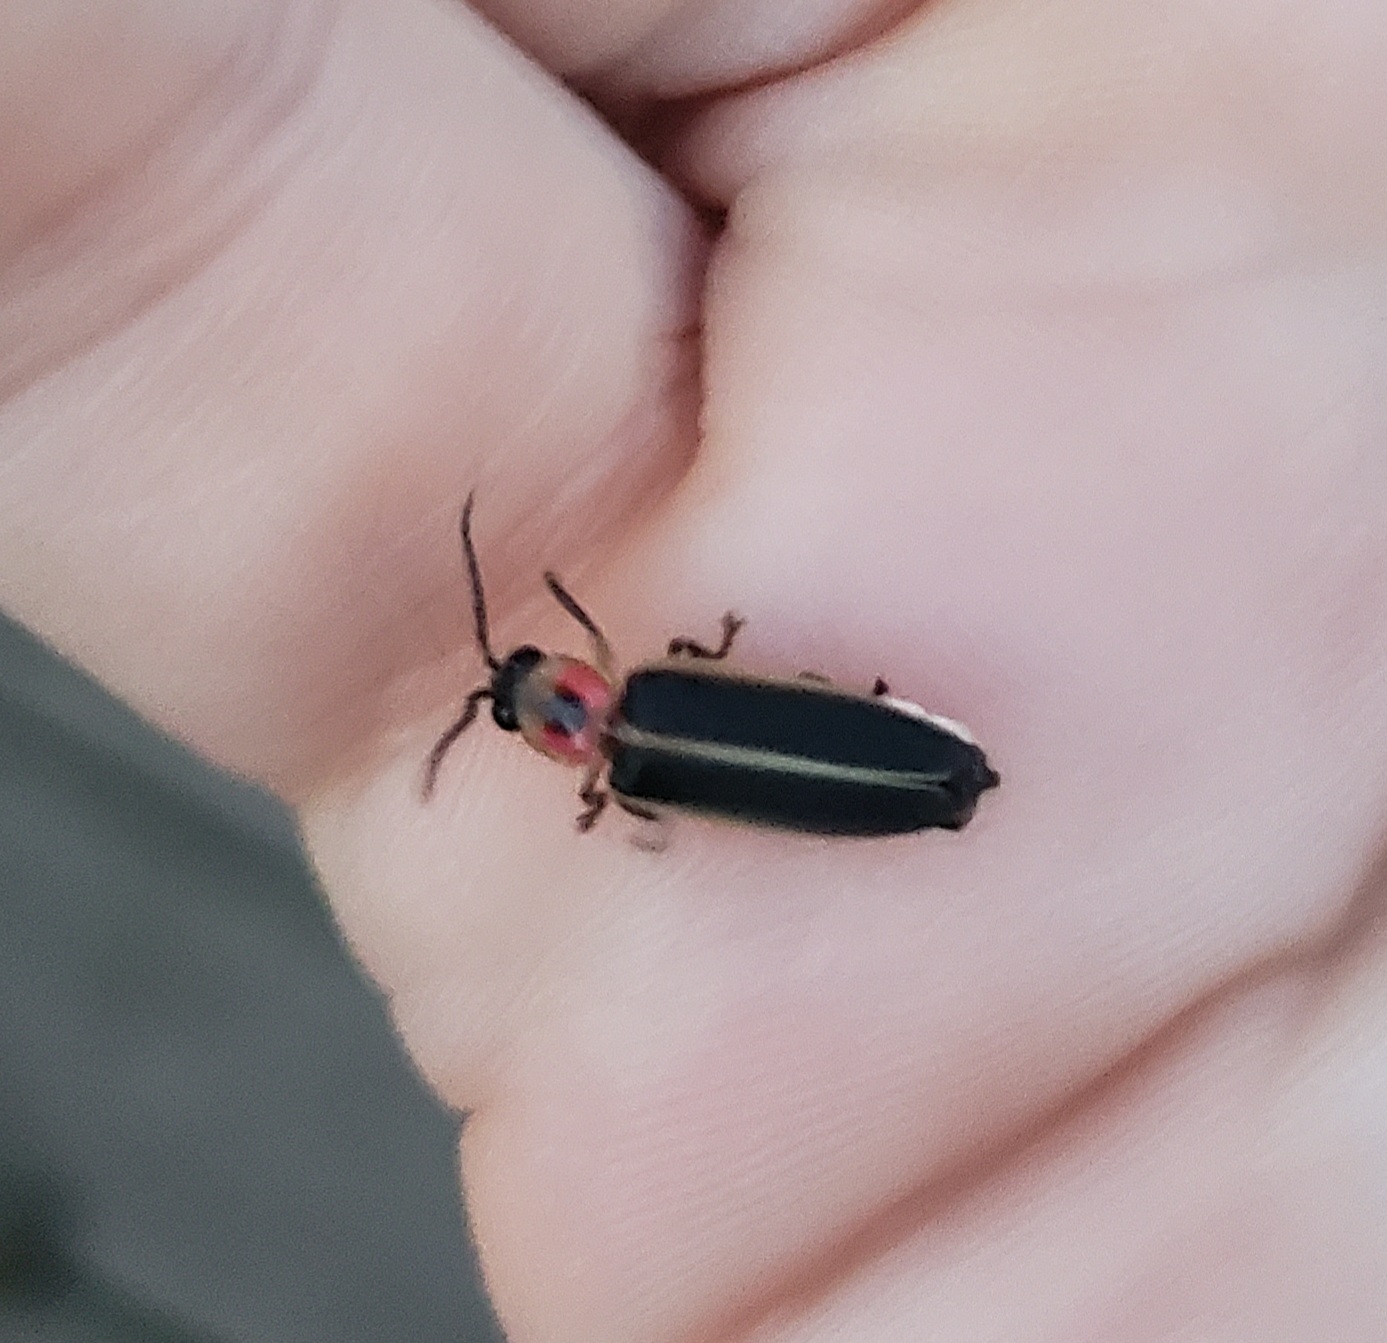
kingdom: Animalia
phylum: Arthropoda
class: Insecta
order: Coleoptera
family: Lampyridae
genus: Photinus
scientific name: Photinus pyralis
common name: Big dipper firefly
